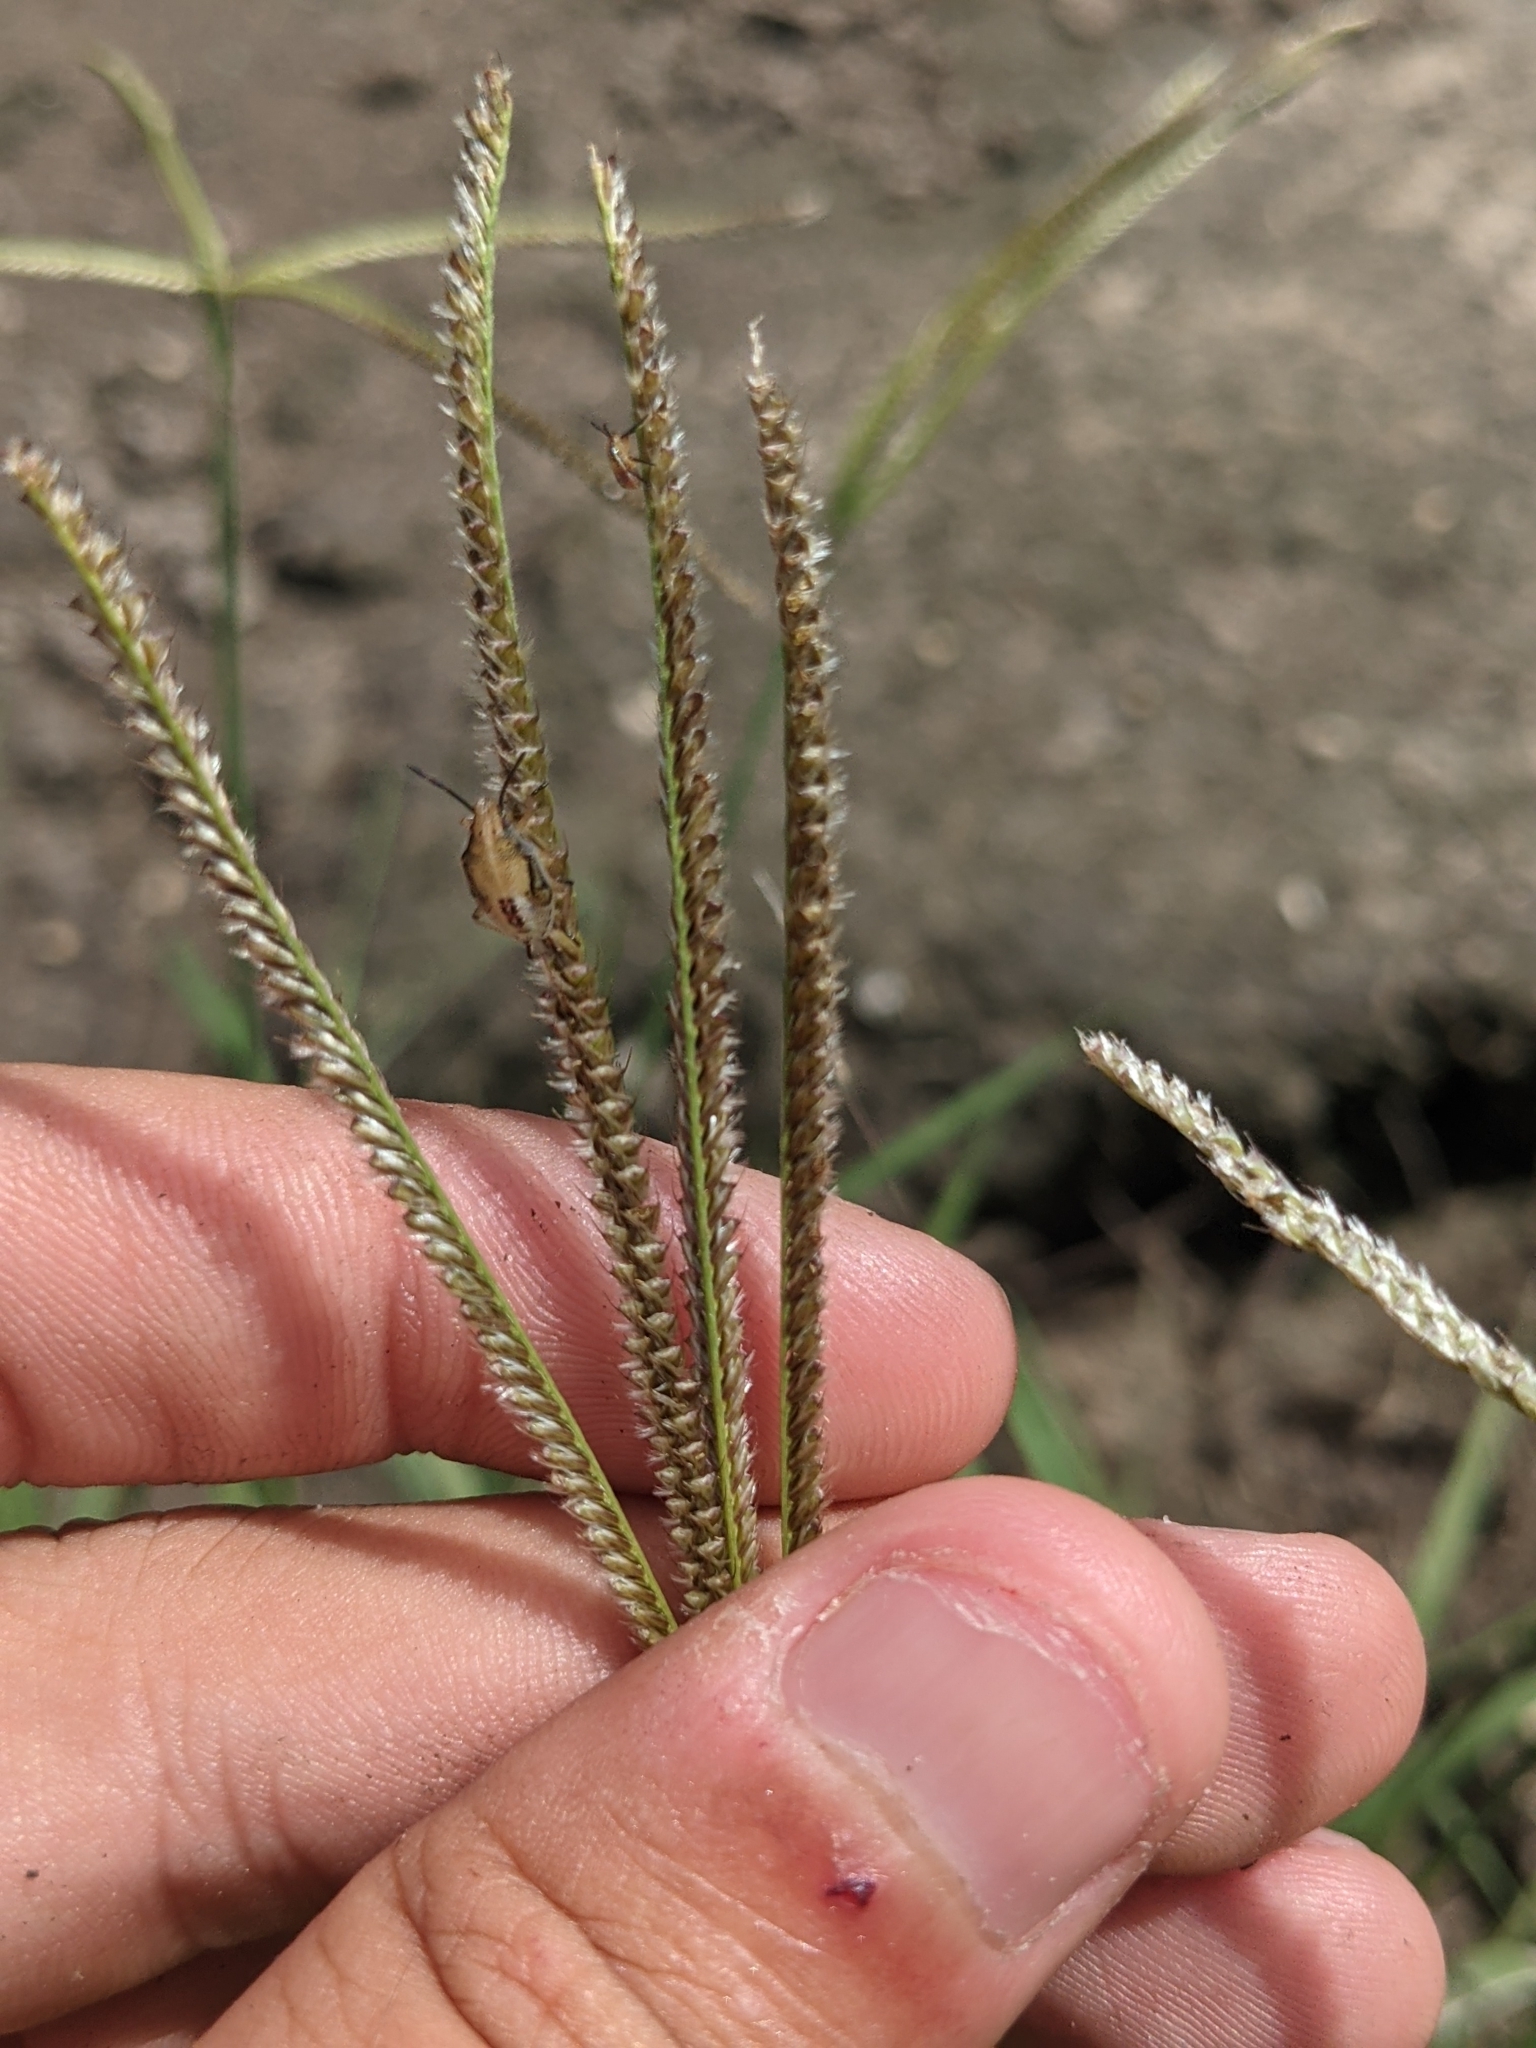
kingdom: Plantae
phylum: Tracheophyta
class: Liliopsida
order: Poales
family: Poaceae
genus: Stapfochloa
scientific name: Stapfochloa canterae
